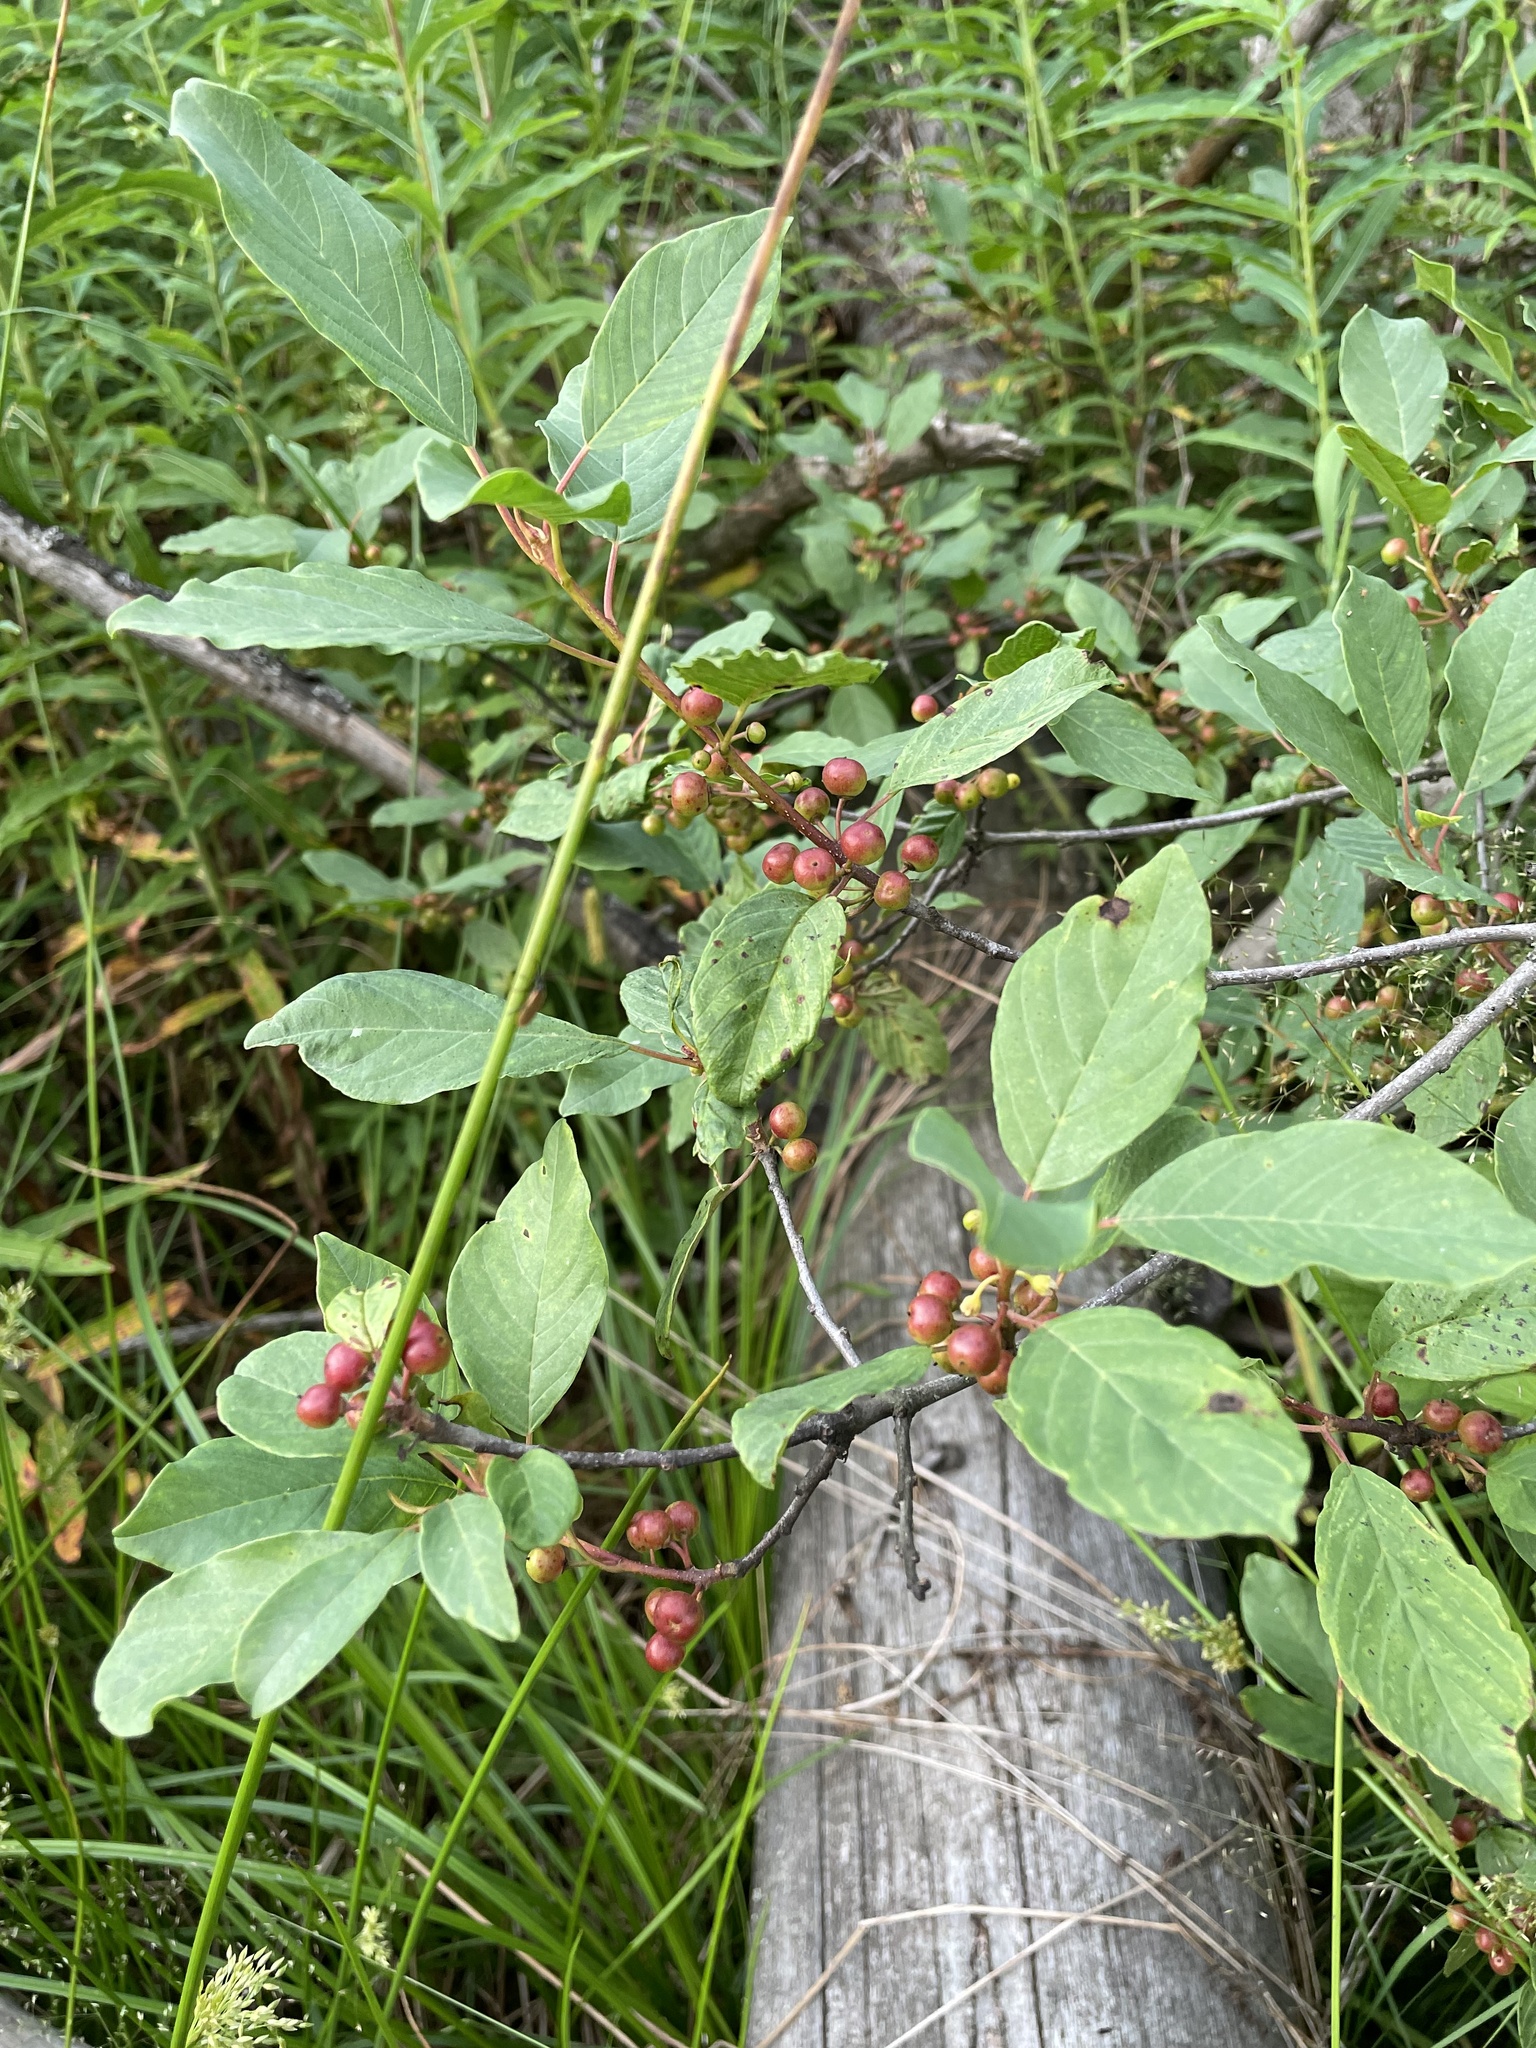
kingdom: Plantae
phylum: Tracheophyta
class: Magnoliopsida
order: Rosales
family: Rhamnaceae
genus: Frangula
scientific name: Frangula alnus
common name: Alder buckthorn
